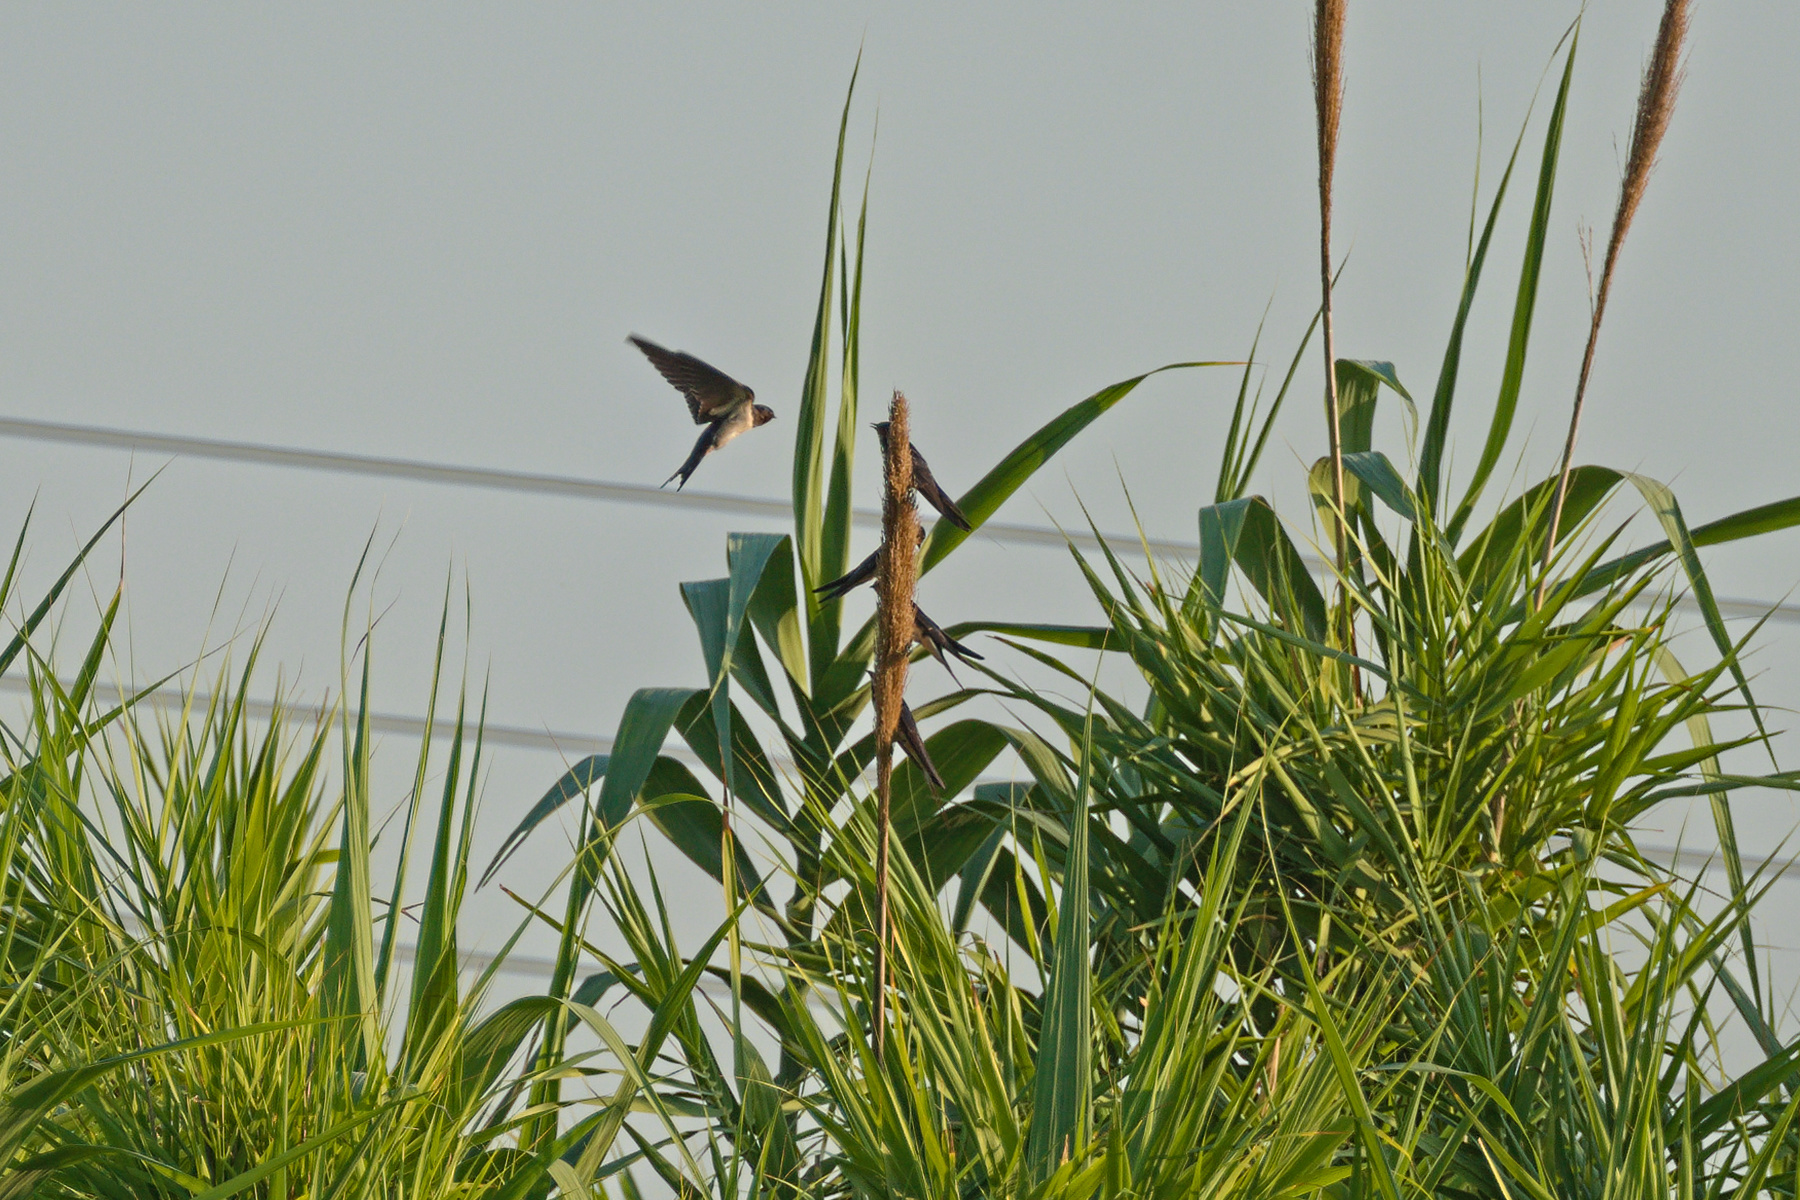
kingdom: Animalia
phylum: Chordata
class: Aves
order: Passeriformes
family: Hirundinidae
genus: Hirundo
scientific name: Hirundo rustica
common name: Barn swallow
